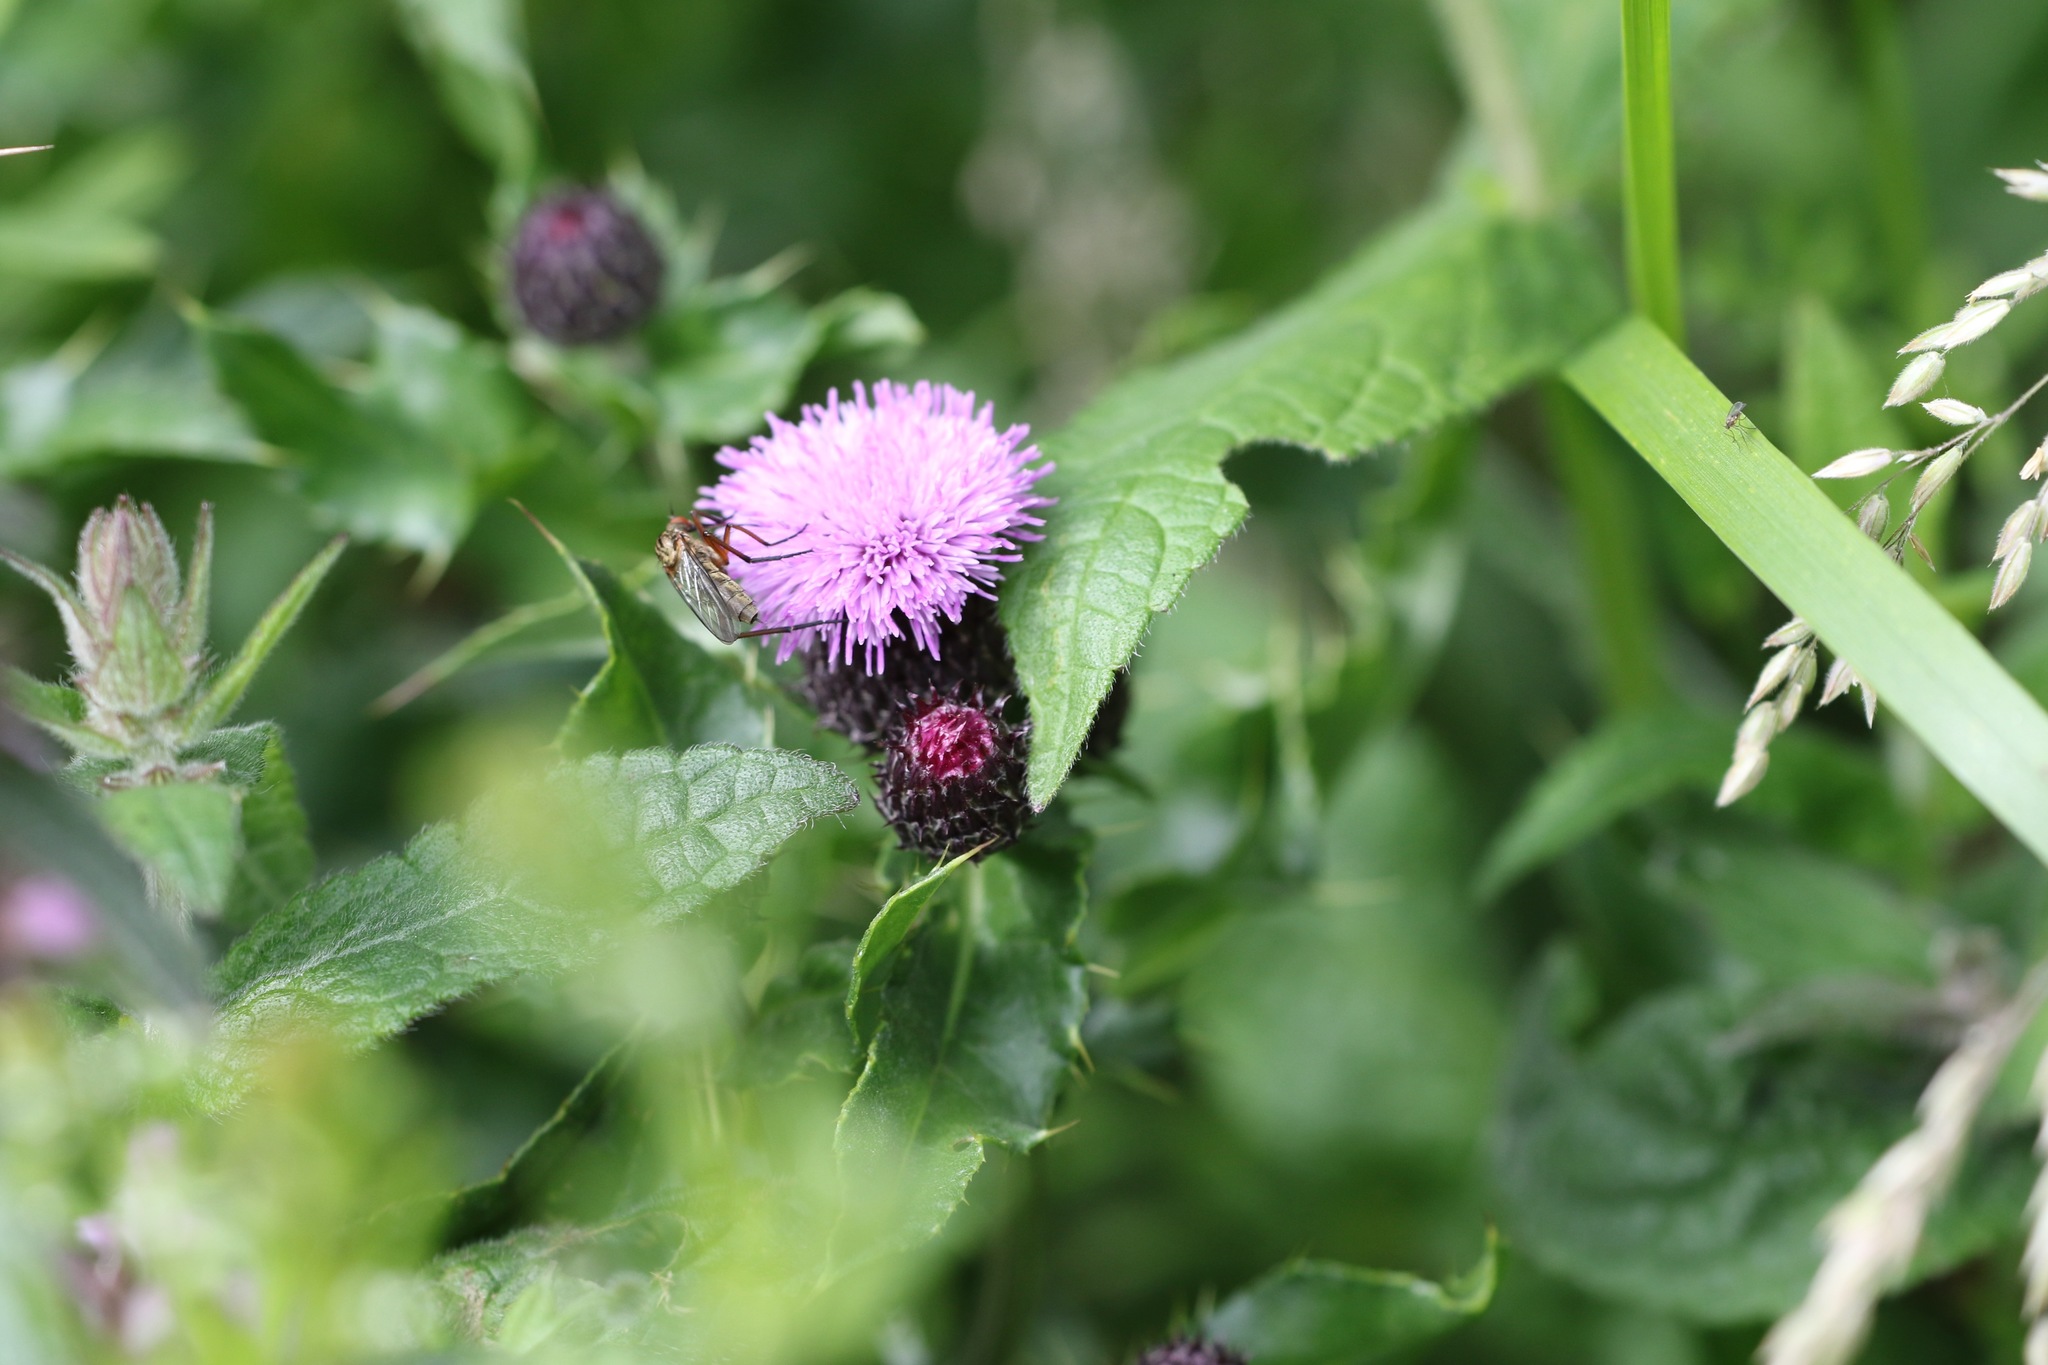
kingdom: Plantae
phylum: Tracheophyta
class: Magnoliopsida
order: Asterales
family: Asteraceae
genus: Cirsium
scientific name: Cirsium arvense
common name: Creeping thistle
